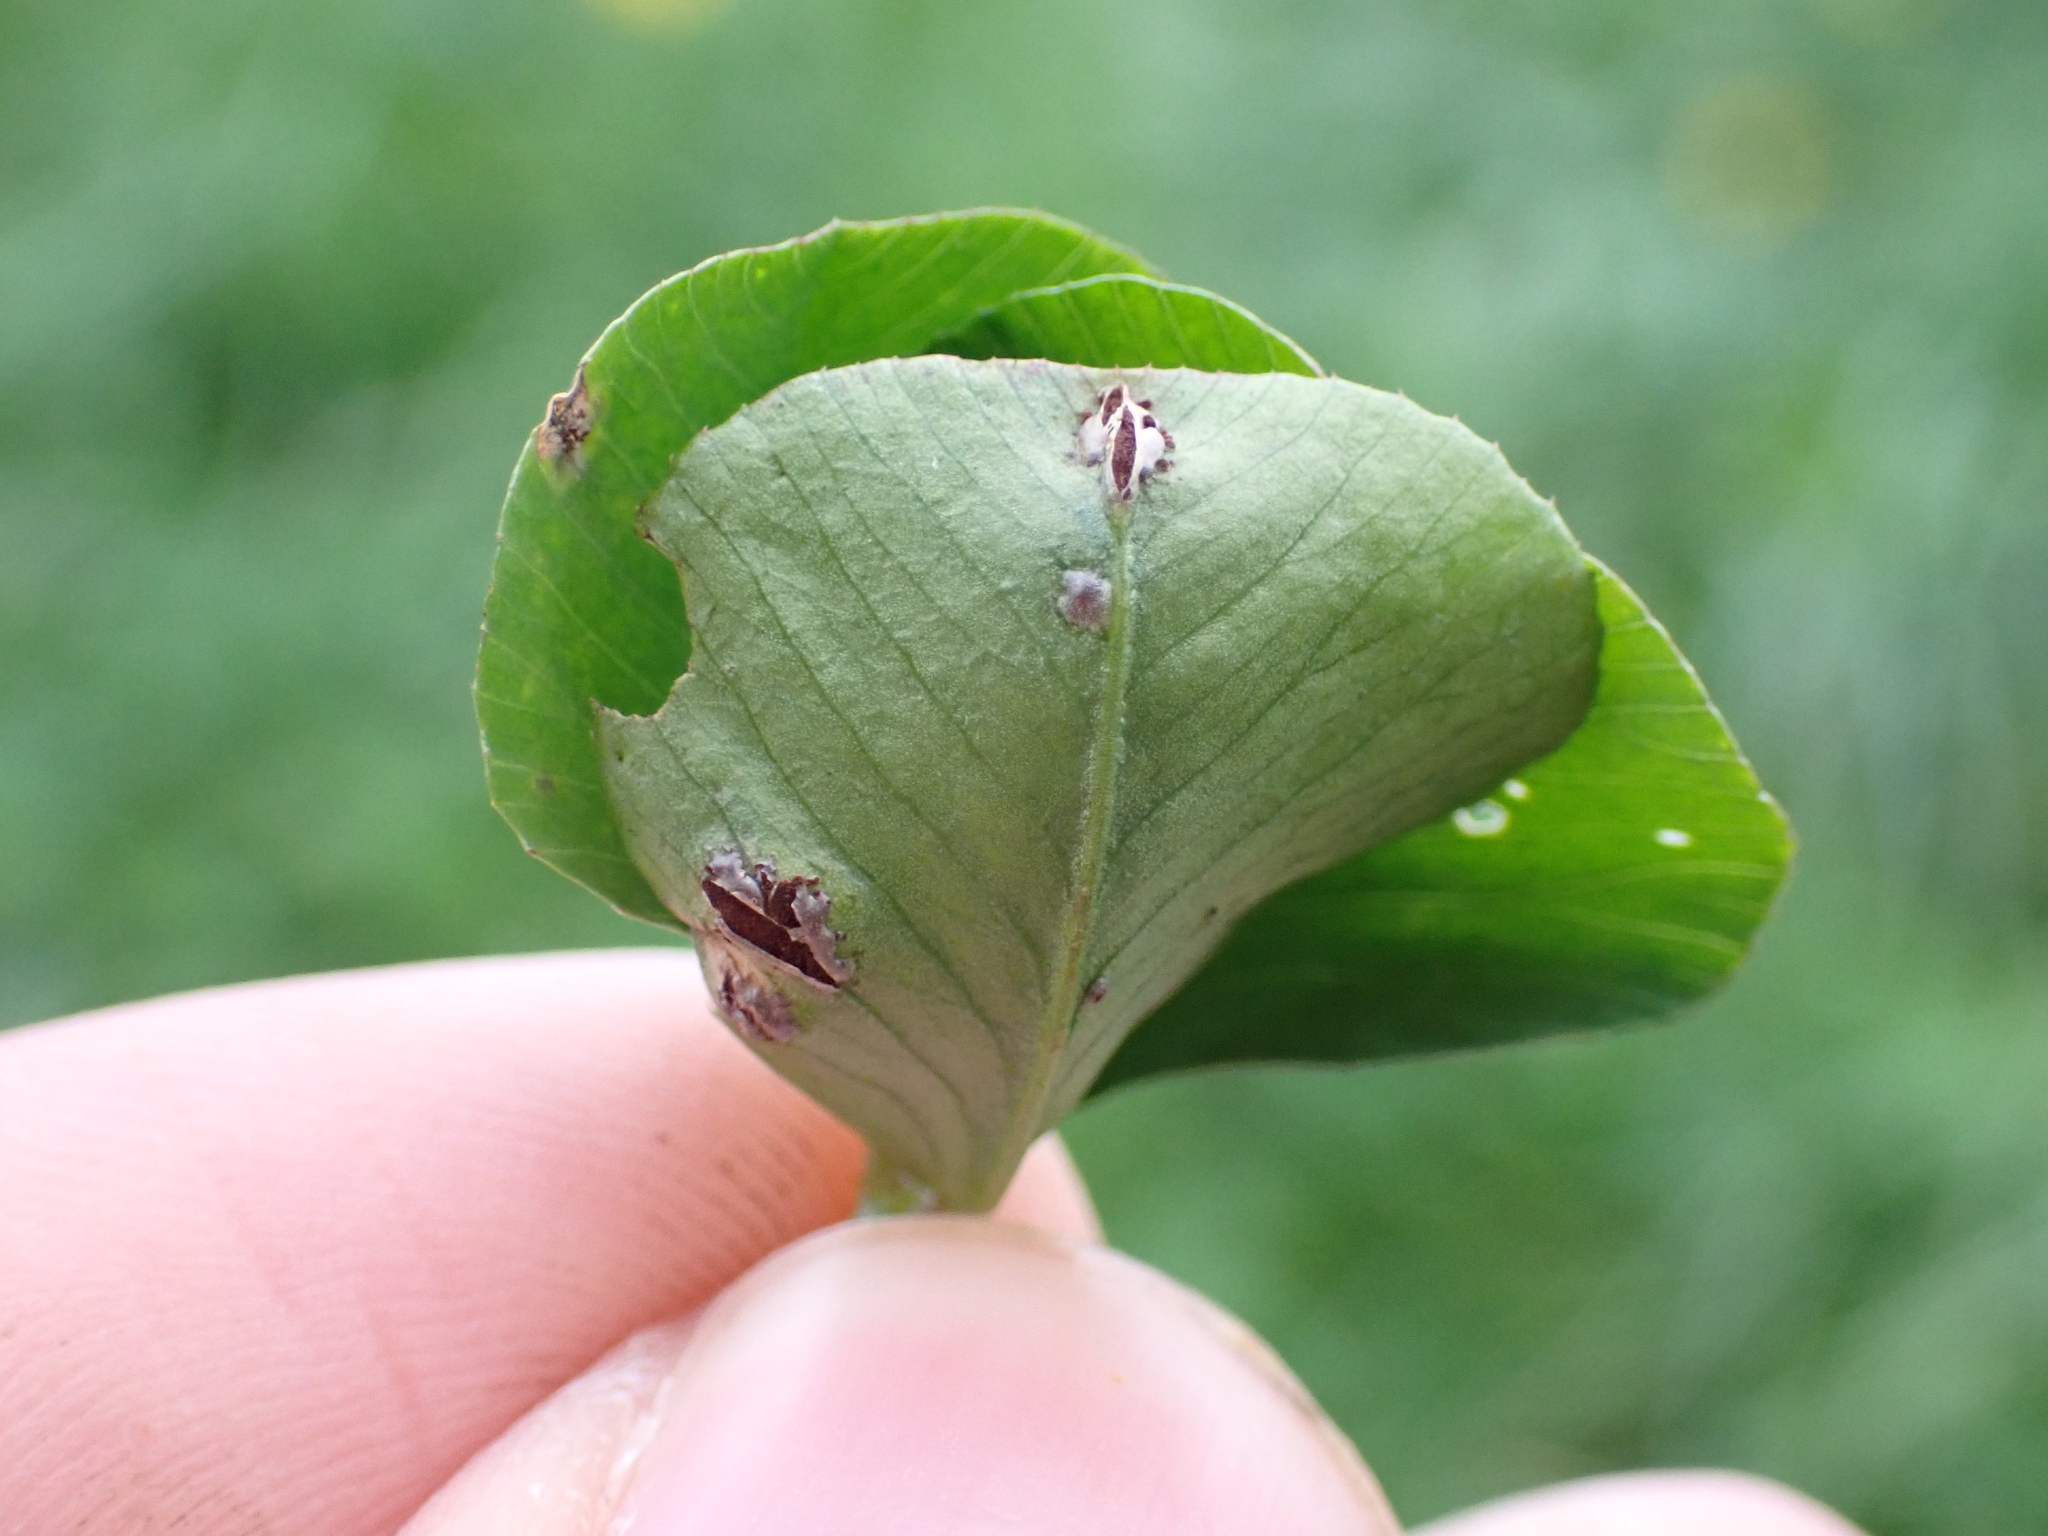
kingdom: Fungi
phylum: Basidiomycota
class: Pucciniomycetes
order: Pucciniales
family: Pucciniaceae
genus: Uromyces
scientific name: Uromyces
